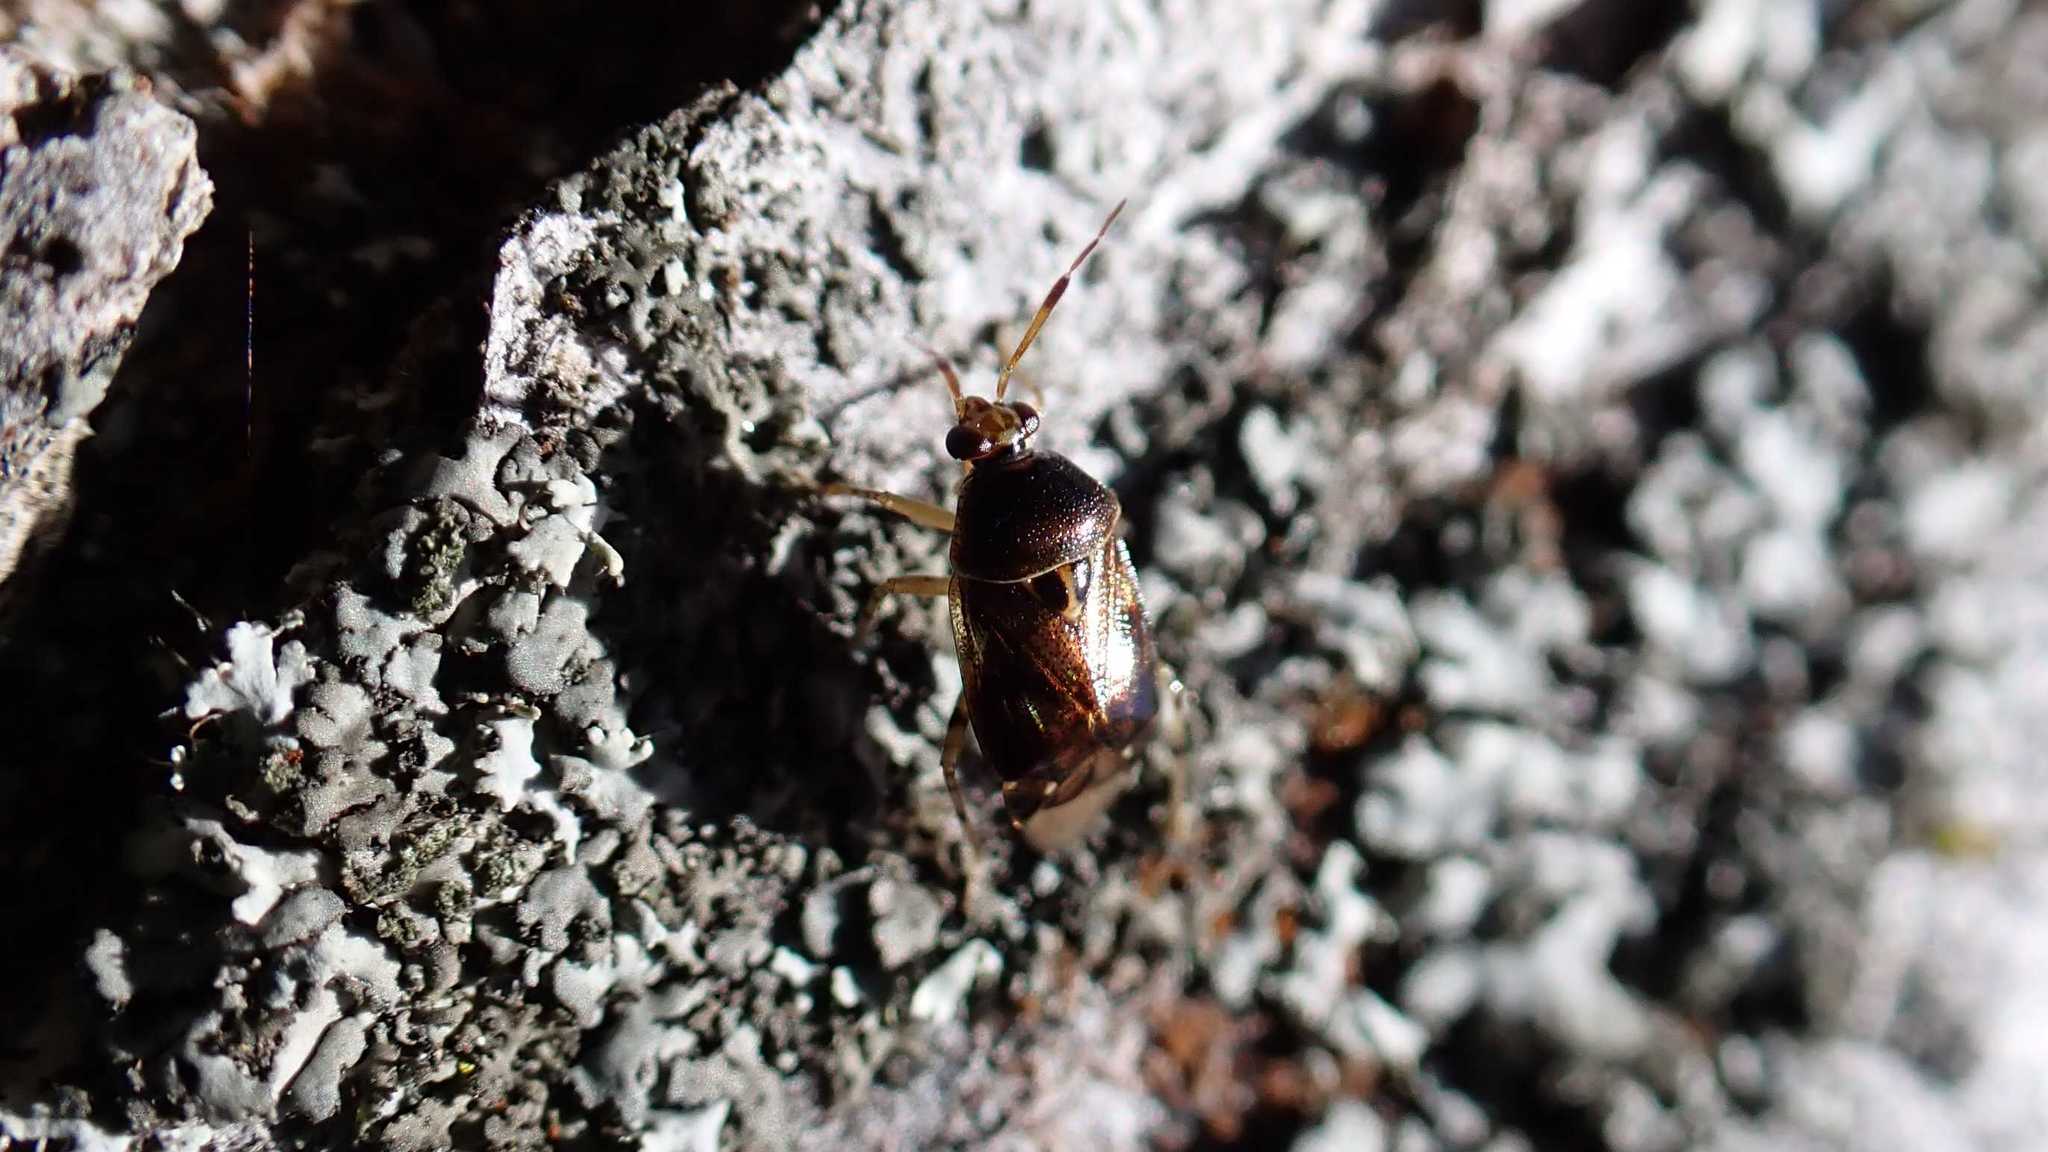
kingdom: Animalia
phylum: Arthropoda
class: Insecta
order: Hemiptera
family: Miridae
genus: Deraeocoris
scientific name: Deraeocoris lutescens
